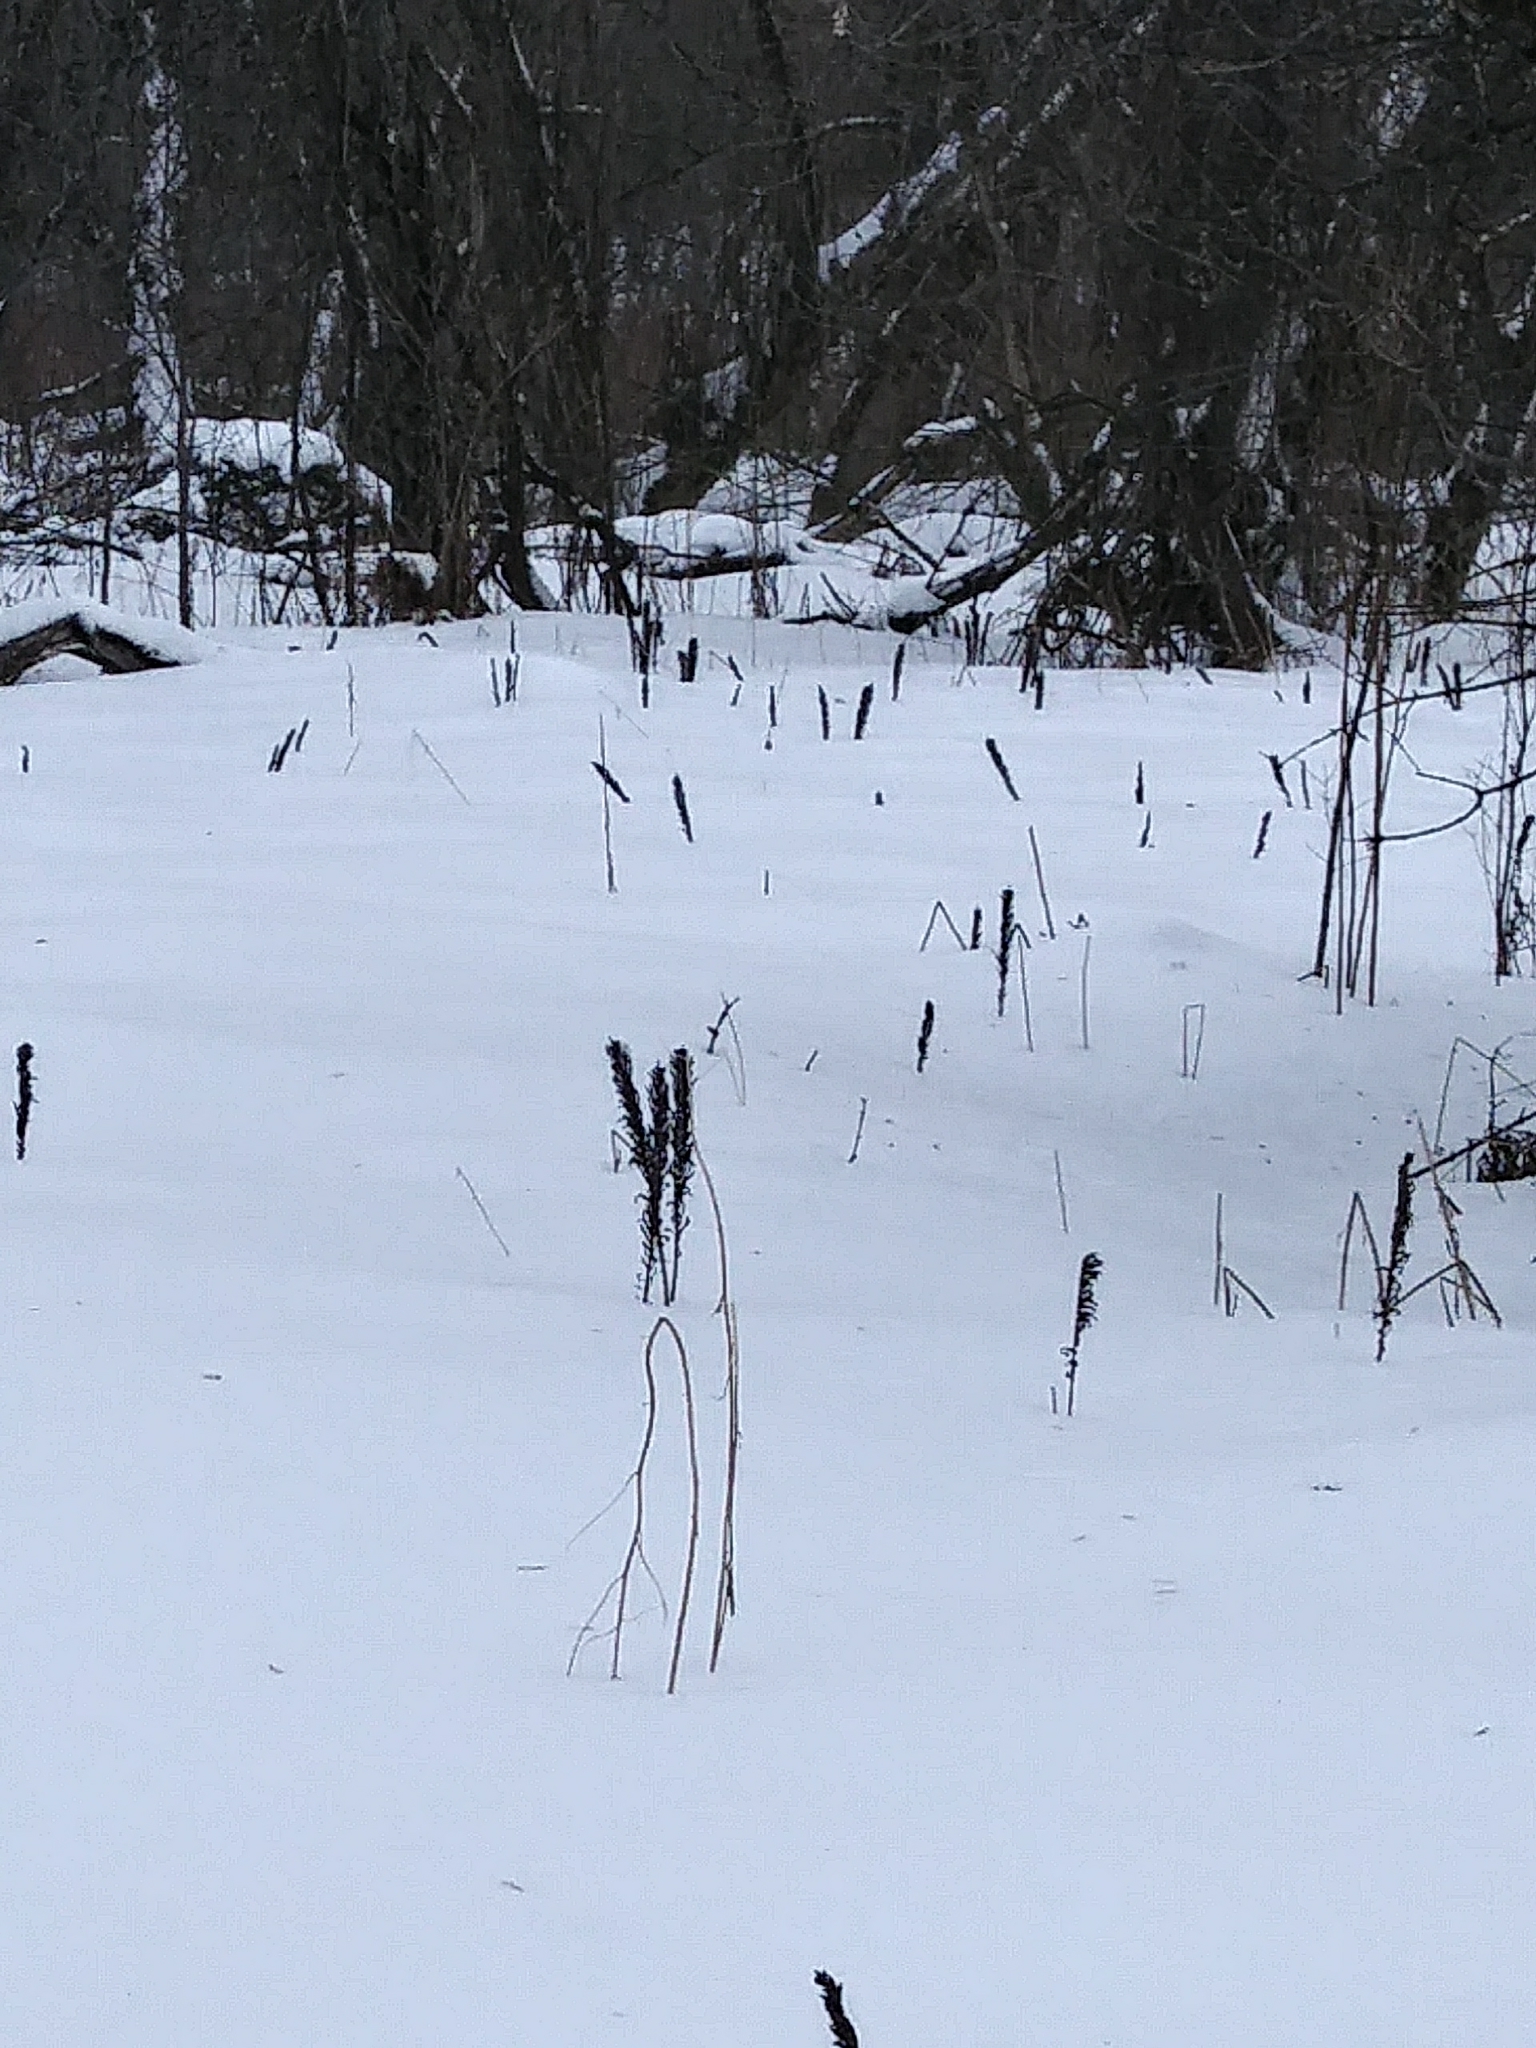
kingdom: Plantae
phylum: Tracheophyta
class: Polypodiopsida
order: Polypodiales
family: Onocleaceae
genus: Matteuccia
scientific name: Matteuccia struthiopteris
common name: Ostrich fern
